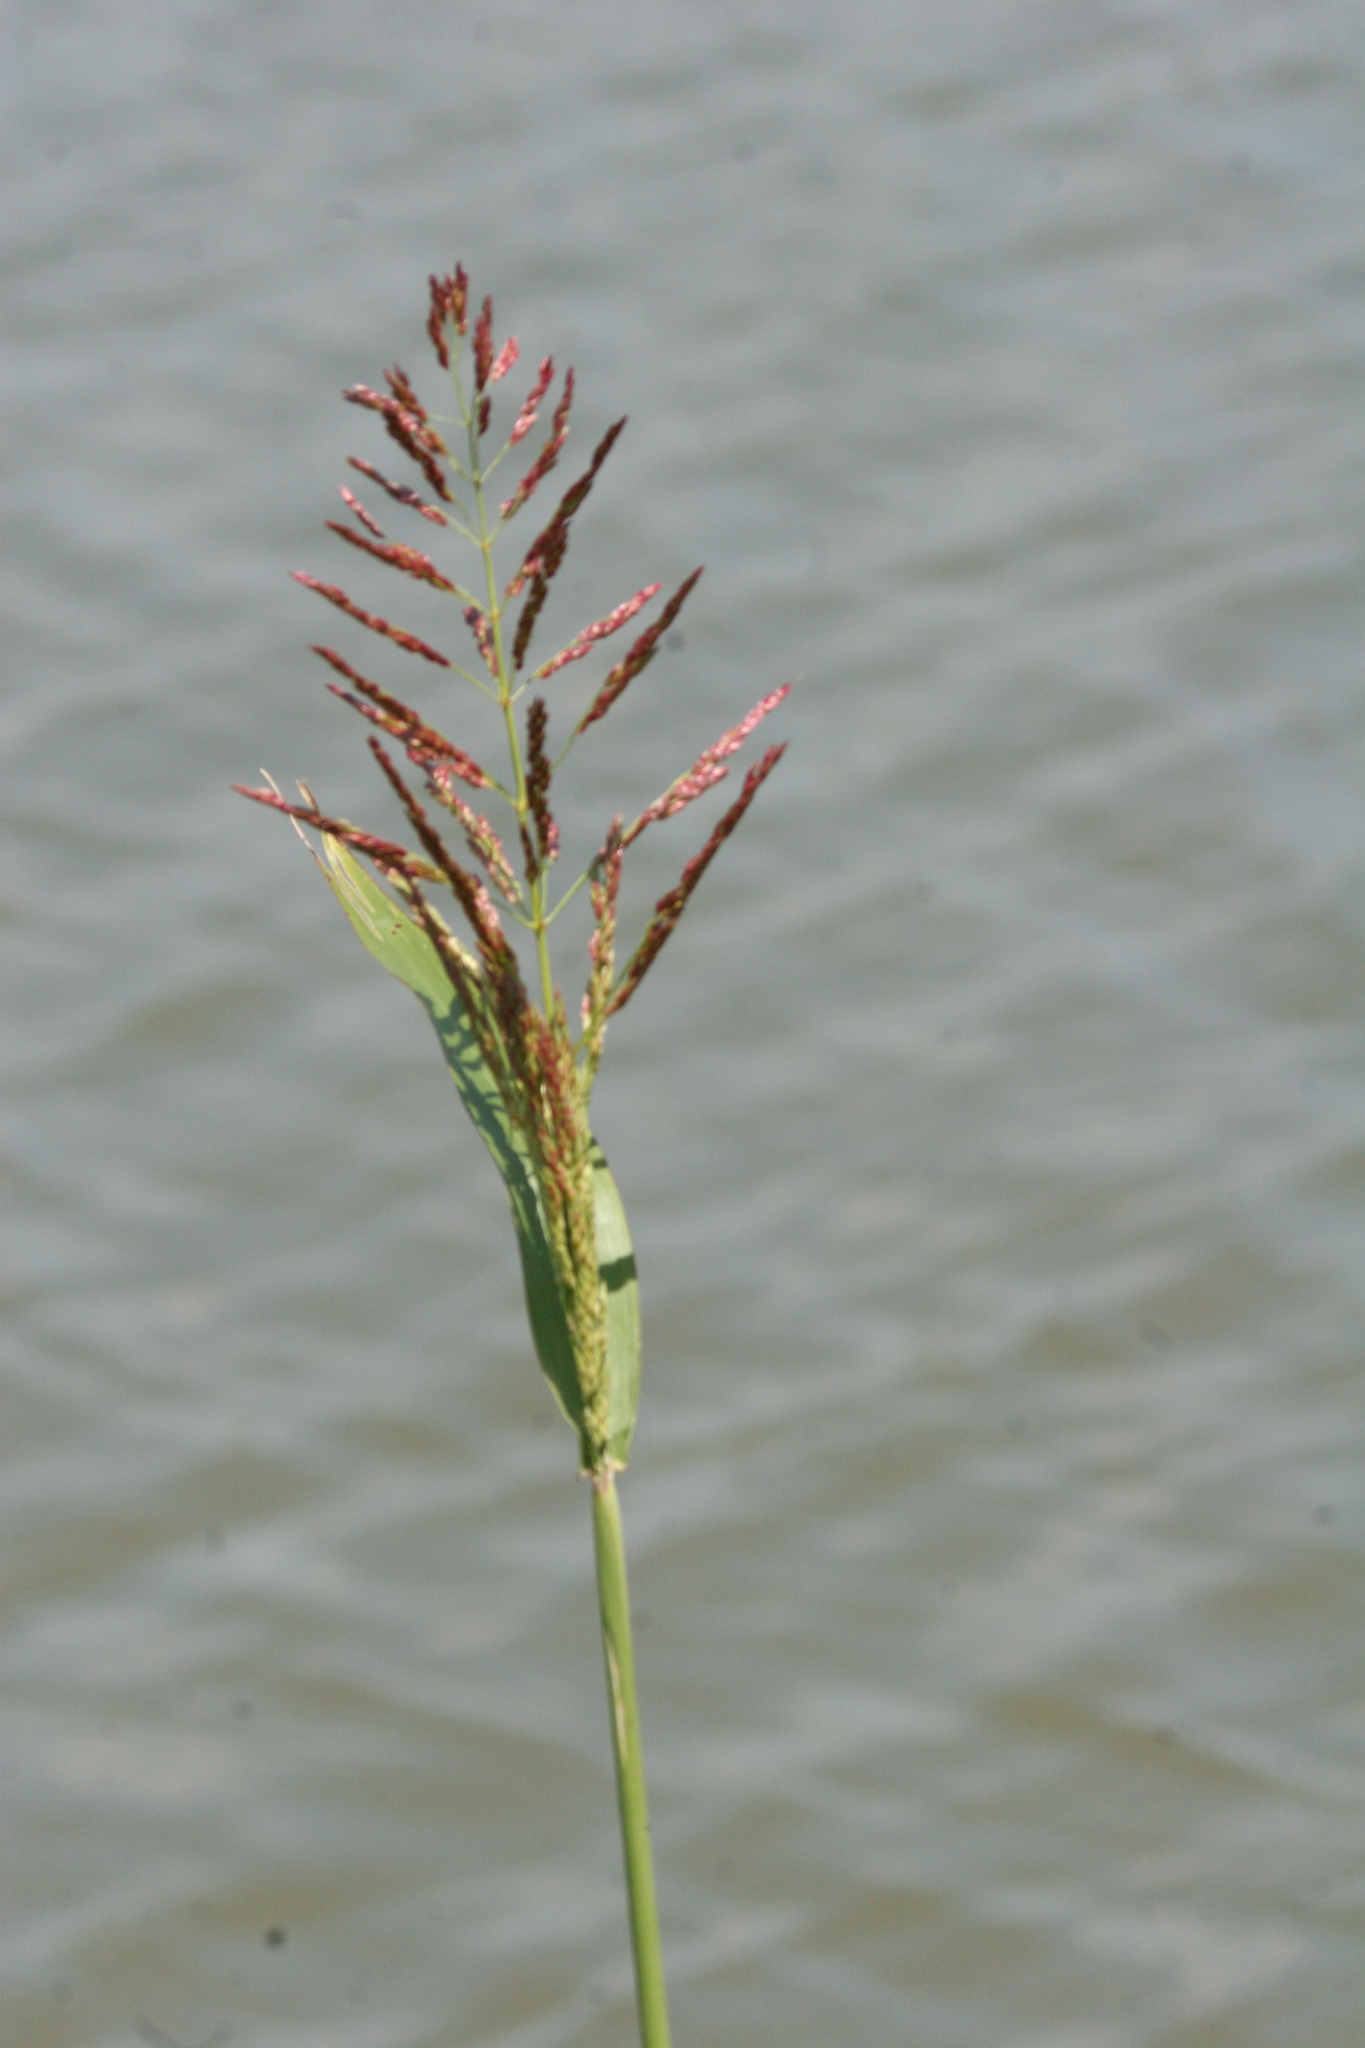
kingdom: Plantae
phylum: Tracheophyta
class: Liliopsida
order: Poales
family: Poaceae
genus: Sorghum
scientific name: Sorghum halepense
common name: Johnson-grass
